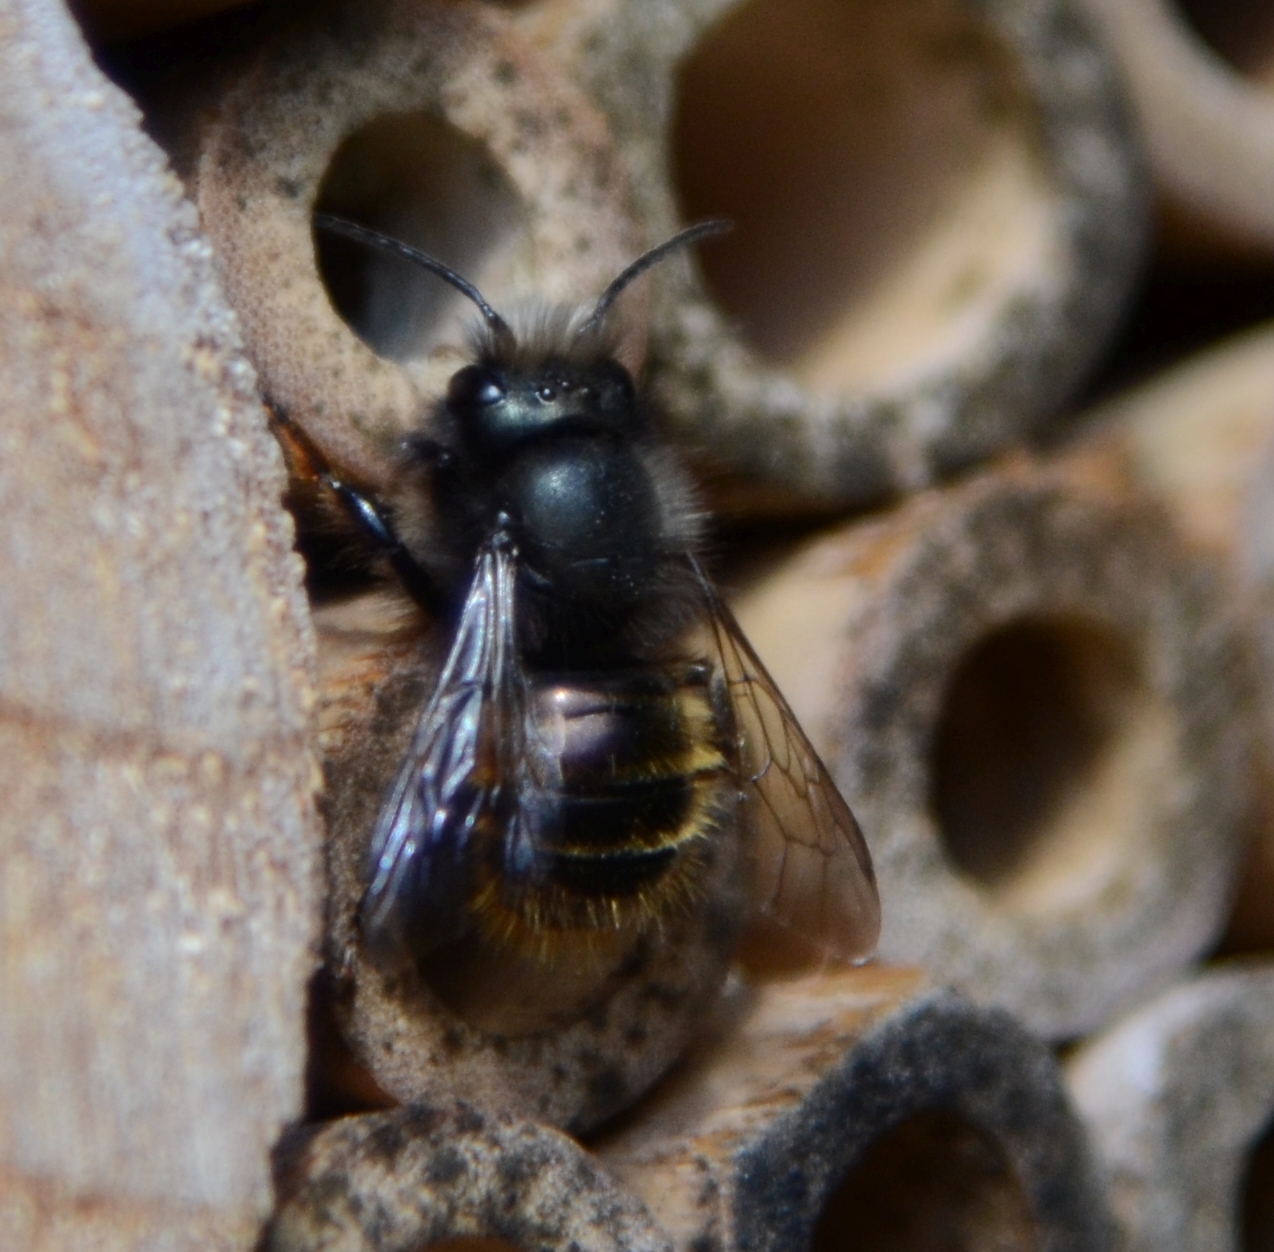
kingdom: Animalia
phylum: Arthropoda
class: Insecta
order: Hymenoptera
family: Megachilidae
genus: Osmia
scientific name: Osmia cornuta
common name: Mason bee
